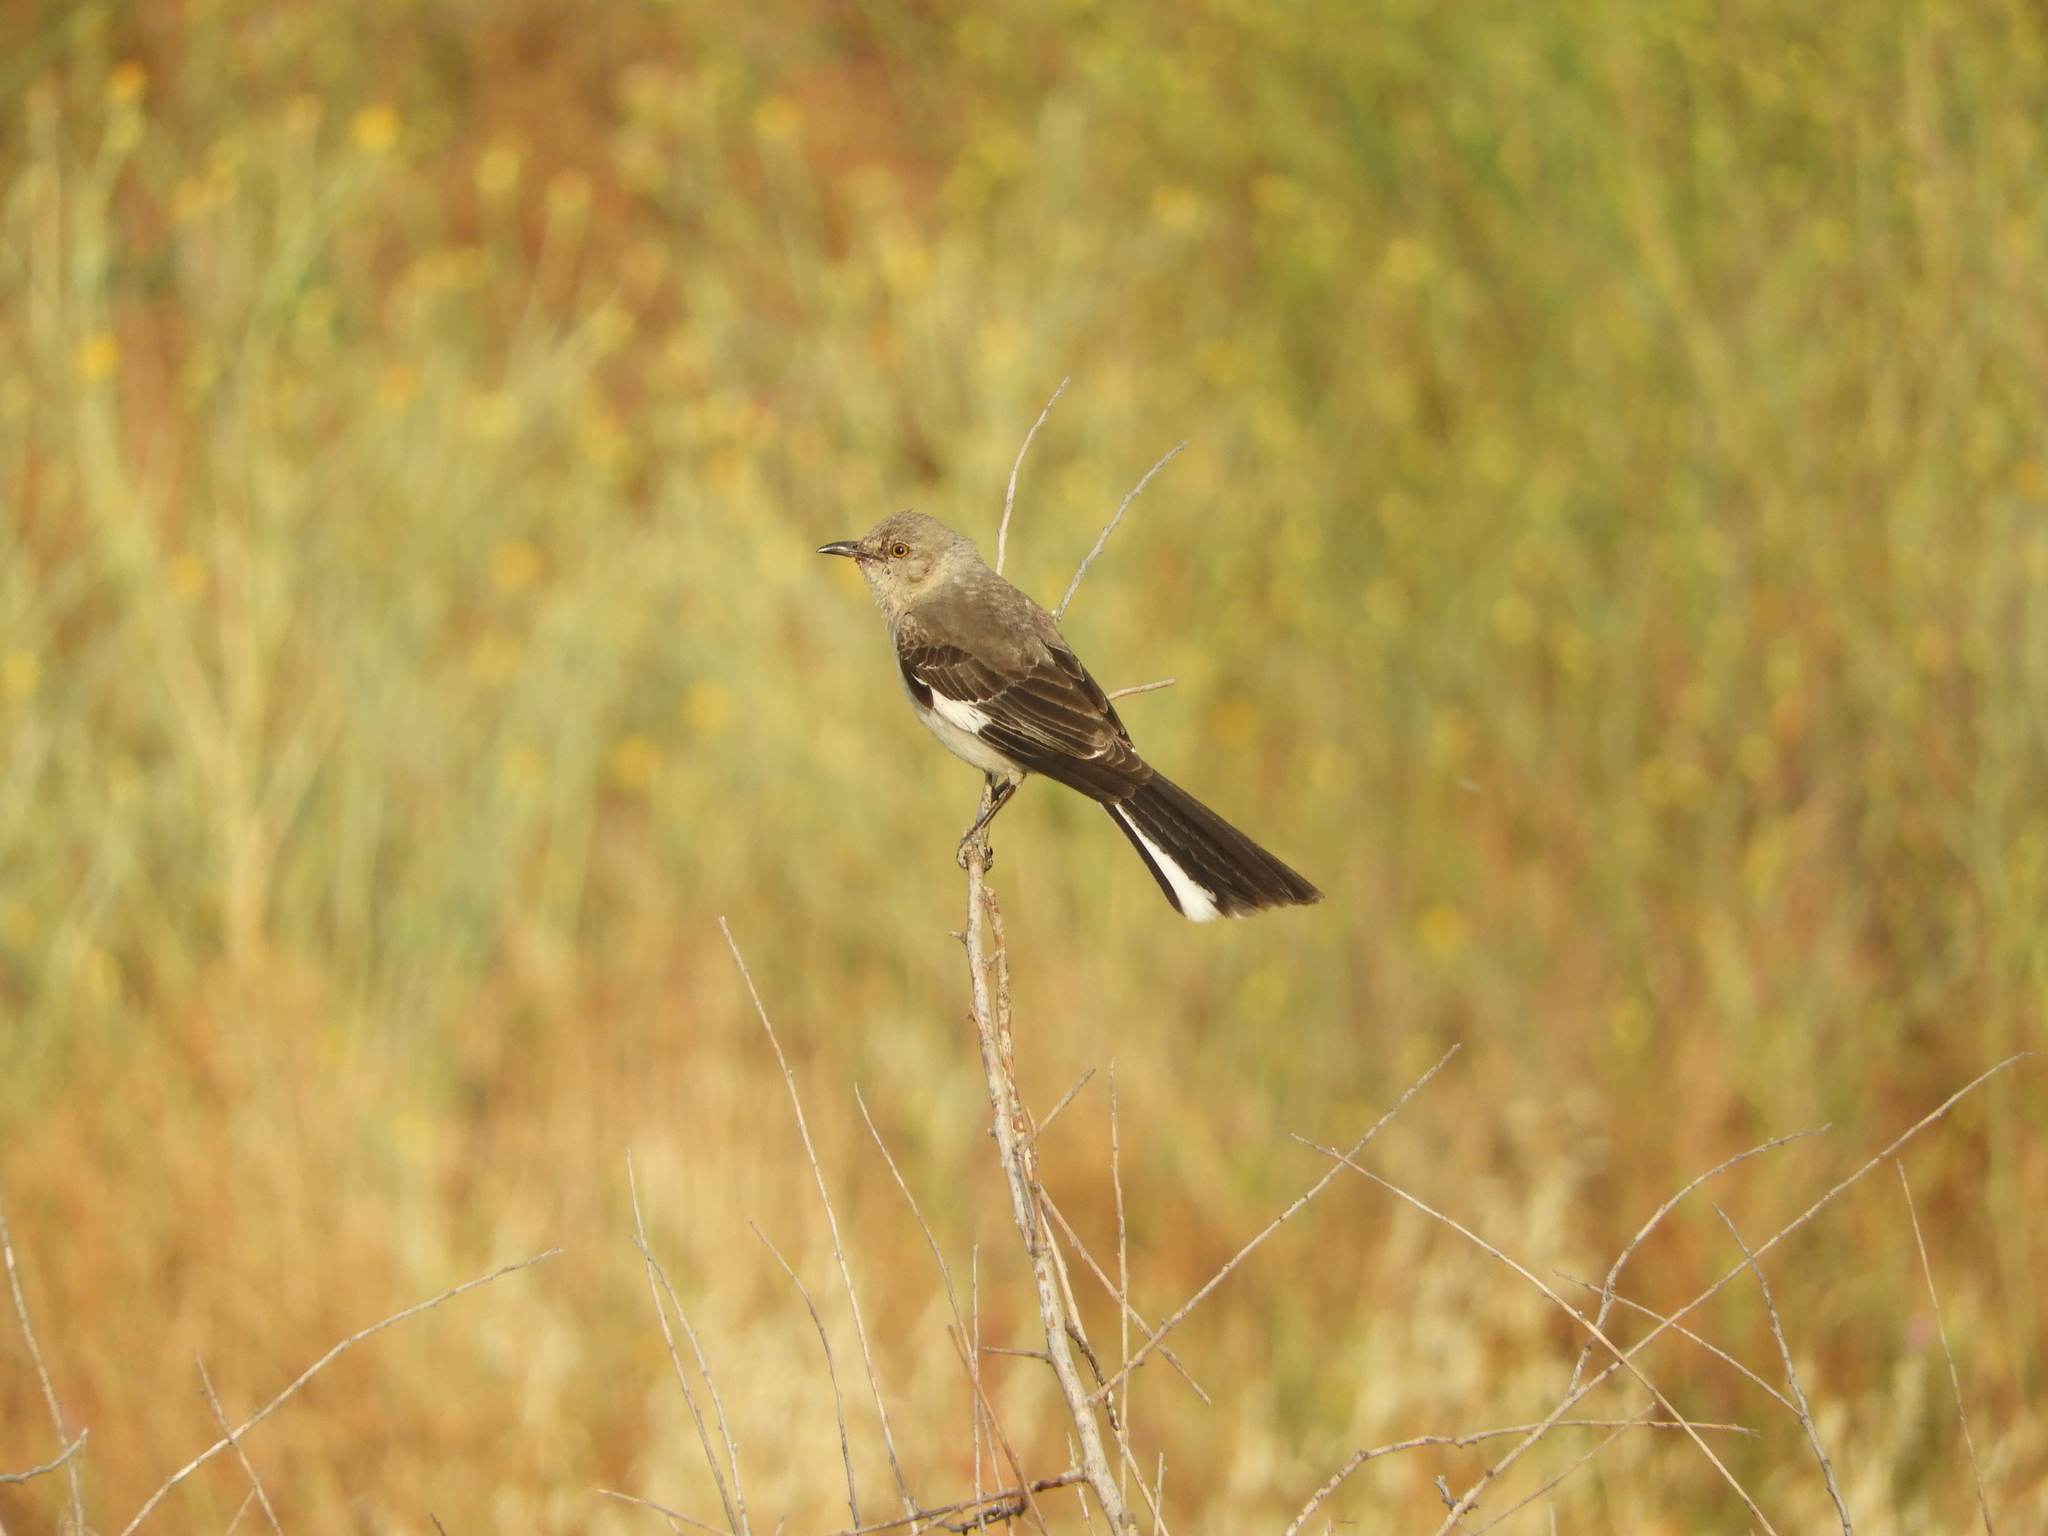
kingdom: Animalia
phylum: Chordata
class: Aves
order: Passeriformes
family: Mimidae
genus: Mimus
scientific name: Mimus polyglottos
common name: Northern mockingbird
